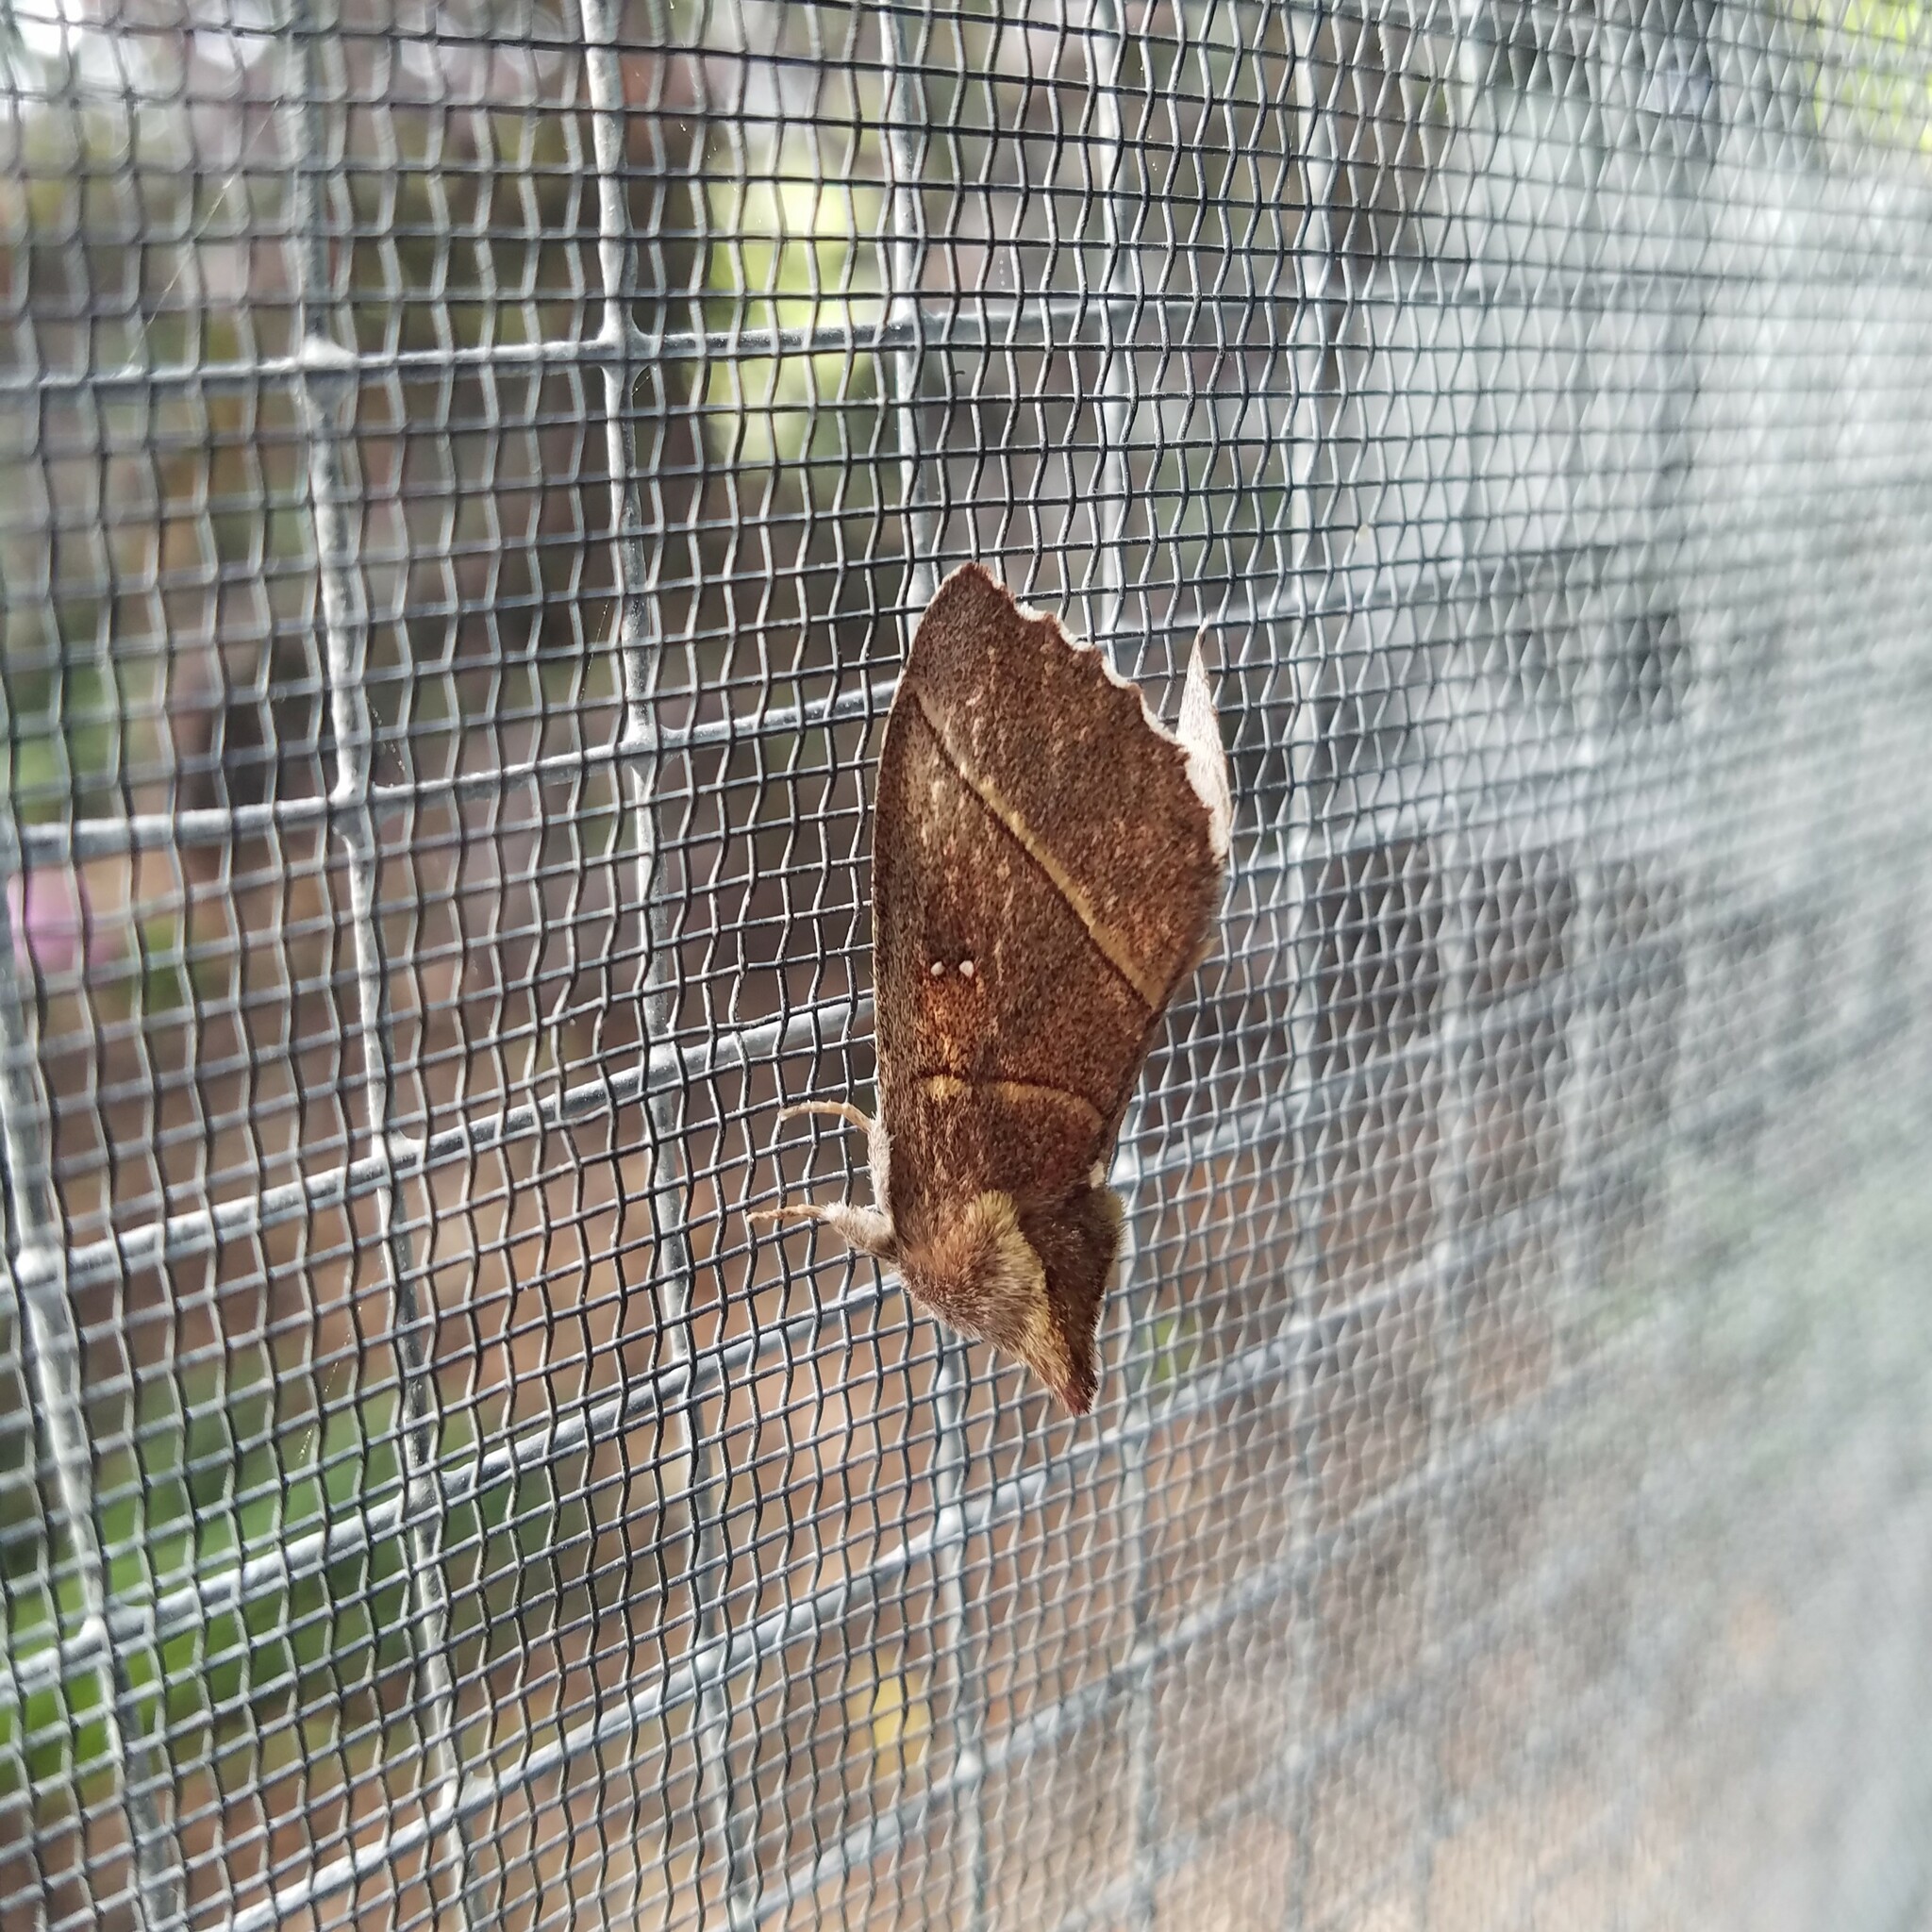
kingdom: Animalia
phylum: Arthropoda
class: Insecta
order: Lepidoptera
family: Notodontidae
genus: Nadata
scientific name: Nadata gibbosa
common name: White-dotted prominent
